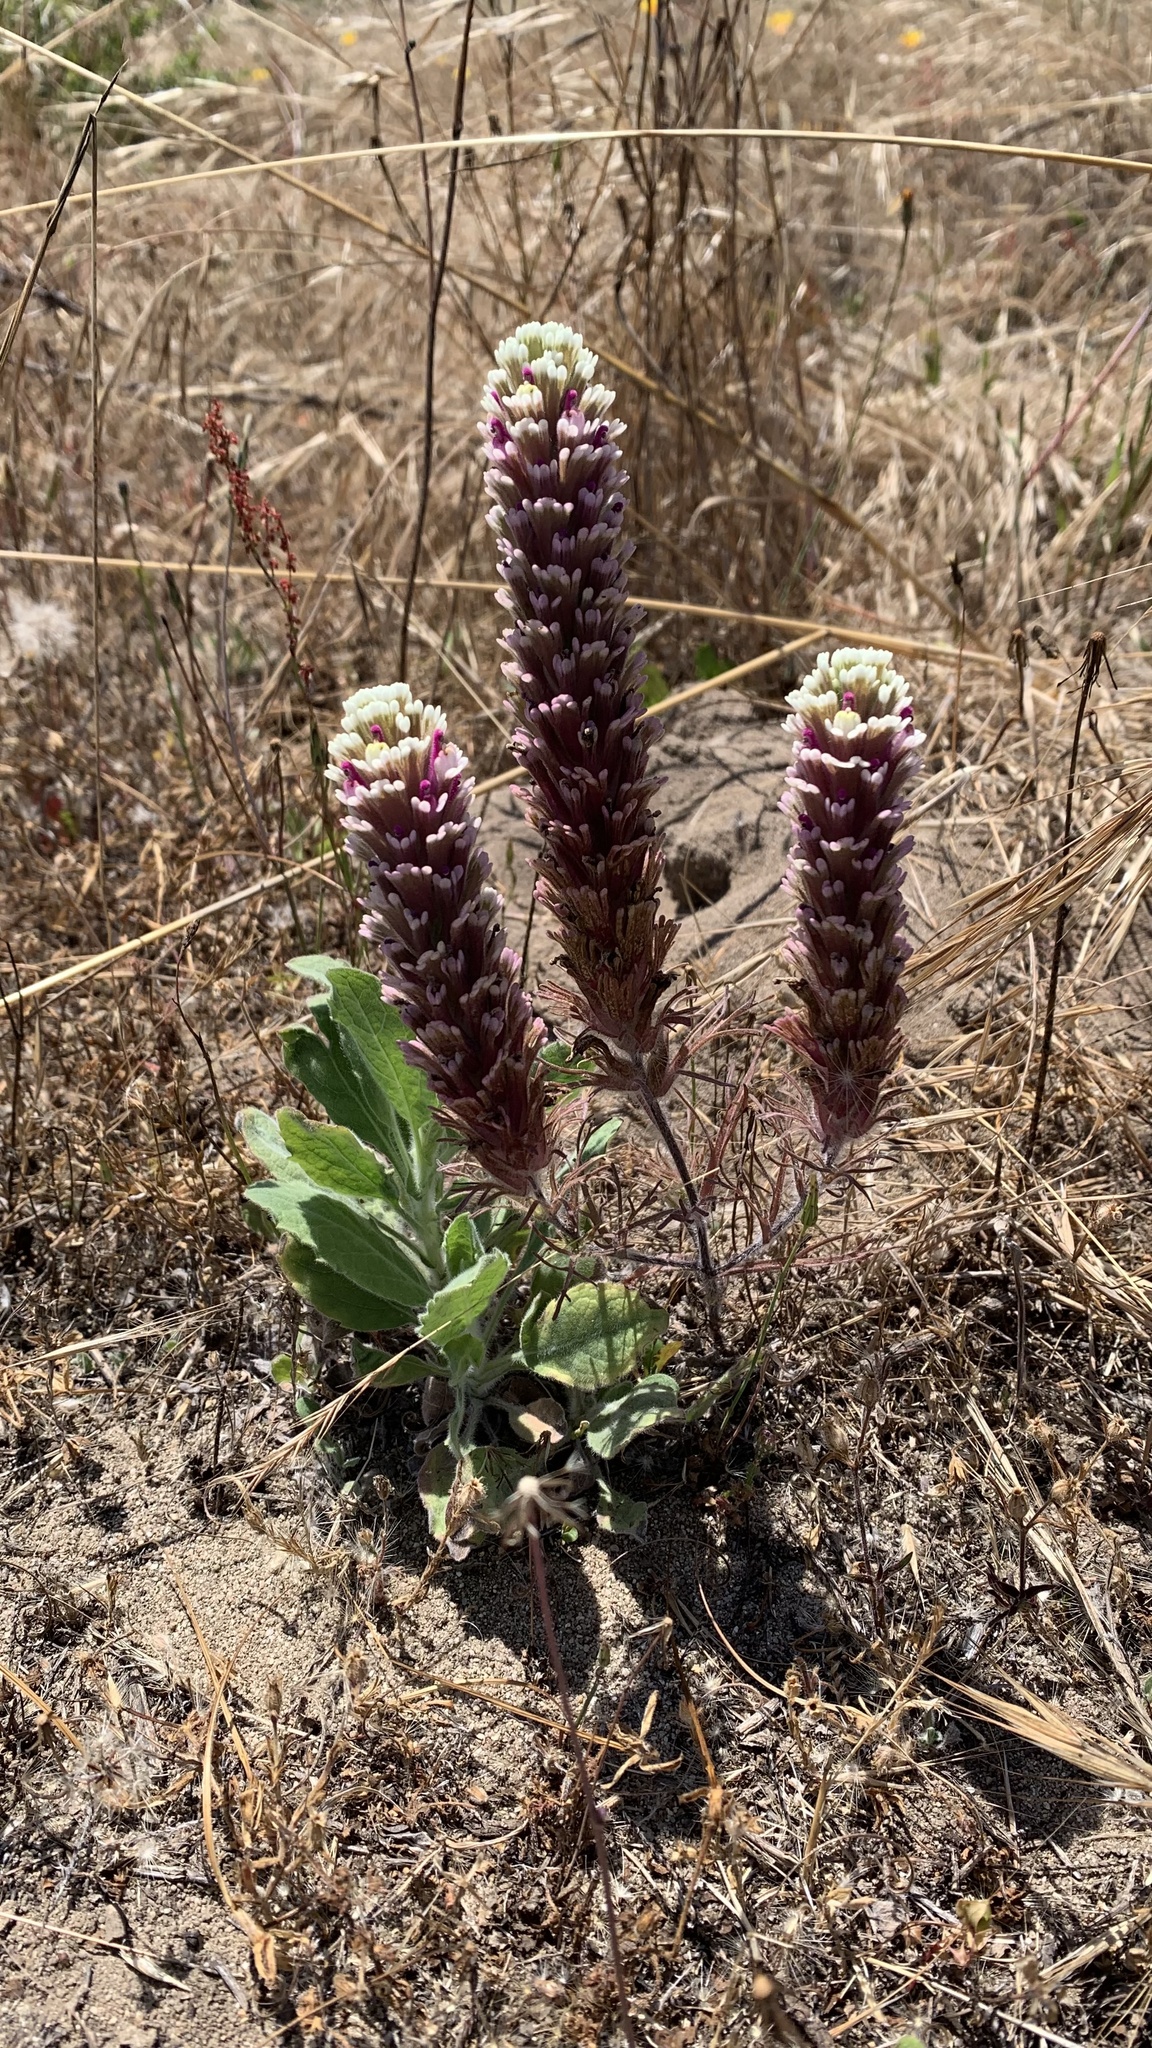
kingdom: Plantae
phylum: Tracheophyta
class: Magnoliopsida
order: Lamiales
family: Orobanchaceae
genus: Castilleja
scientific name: Castilleja exserta
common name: Purple owl-clover
